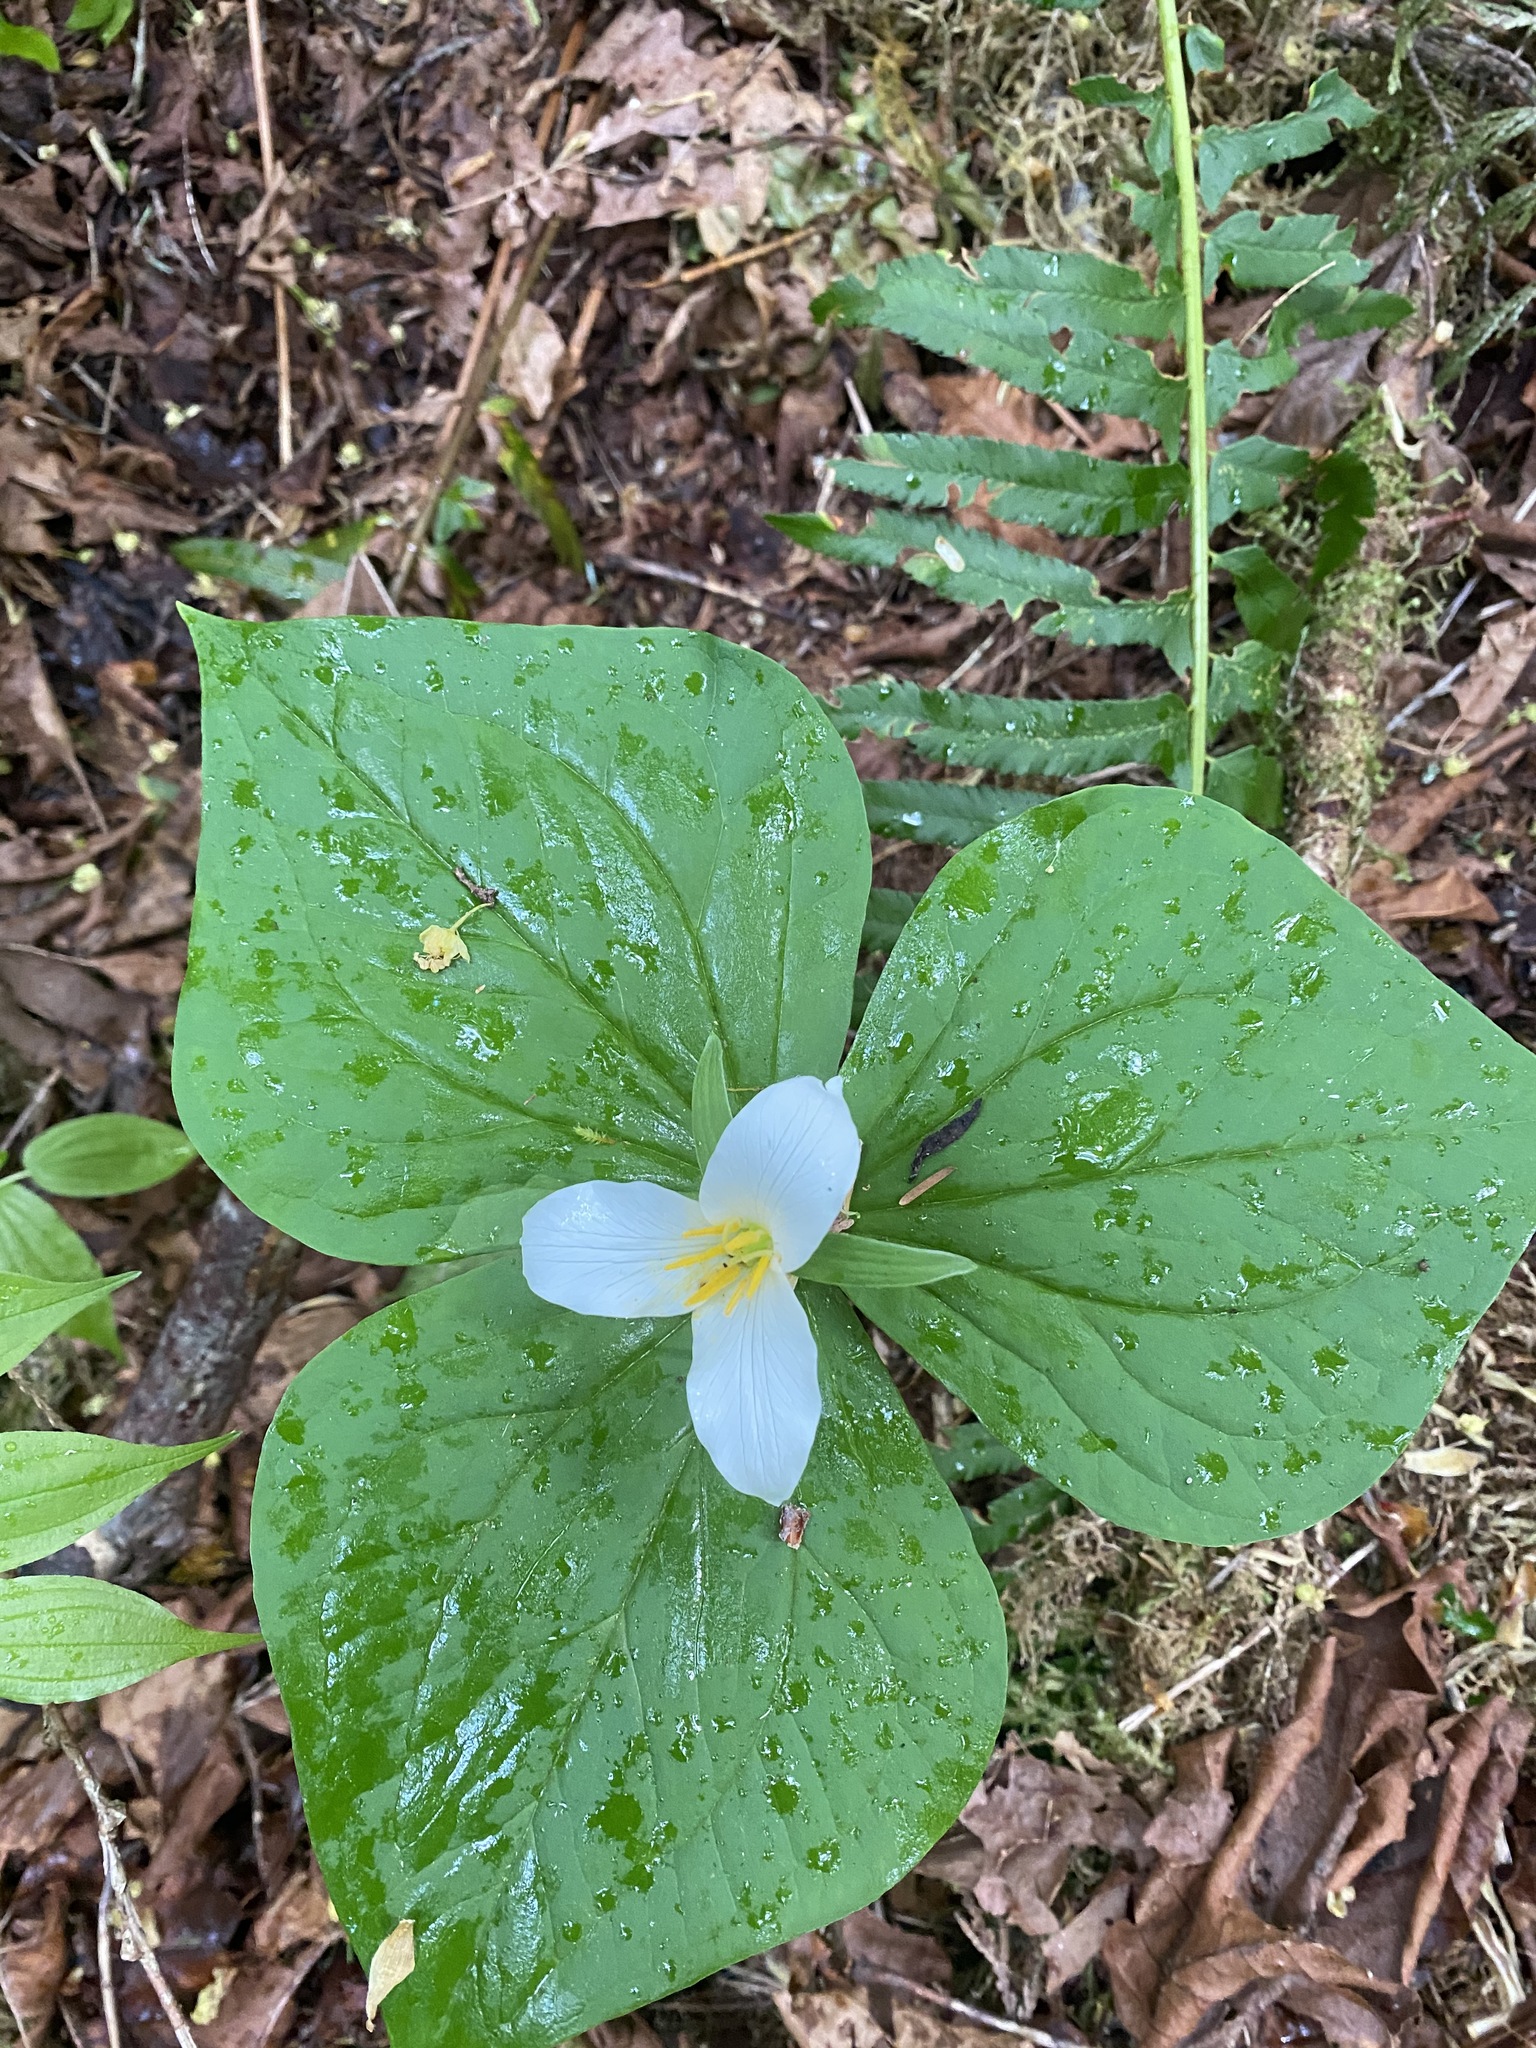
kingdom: Plantae
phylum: Tracheophyta
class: Liliopsida
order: Liliales
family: Melanthiaceae
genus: Trillium
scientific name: Trillium ovatum
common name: Pacific trillium
